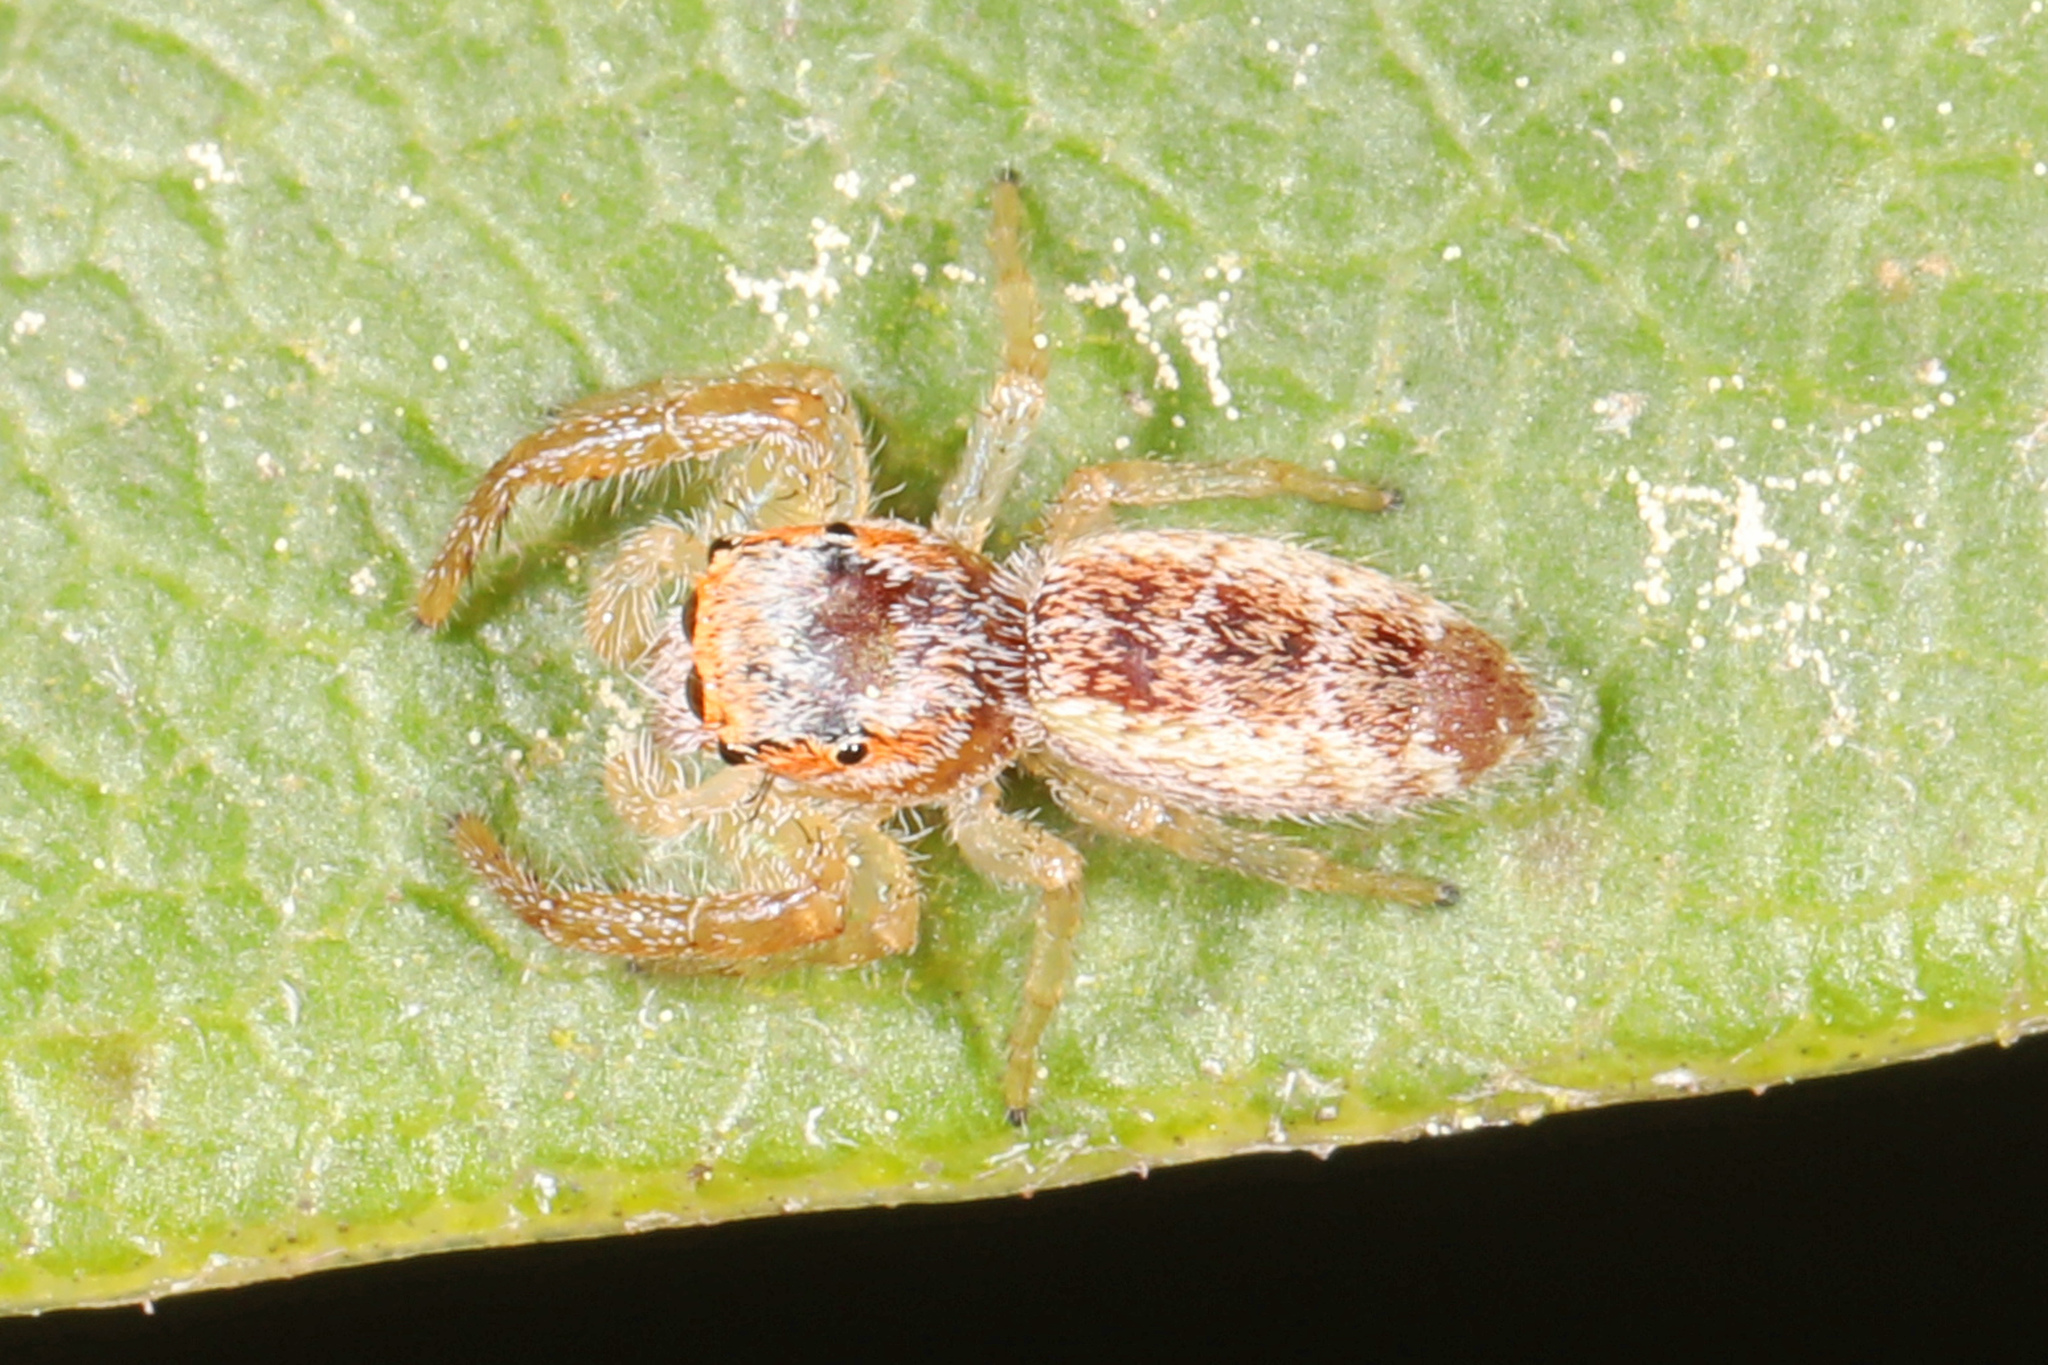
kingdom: Animalia
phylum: Arthropoda
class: Arachnida
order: Araneae
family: Salticidae
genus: Hentzia
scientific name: Hentzia mitrata
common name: White-jawed jumping spider
